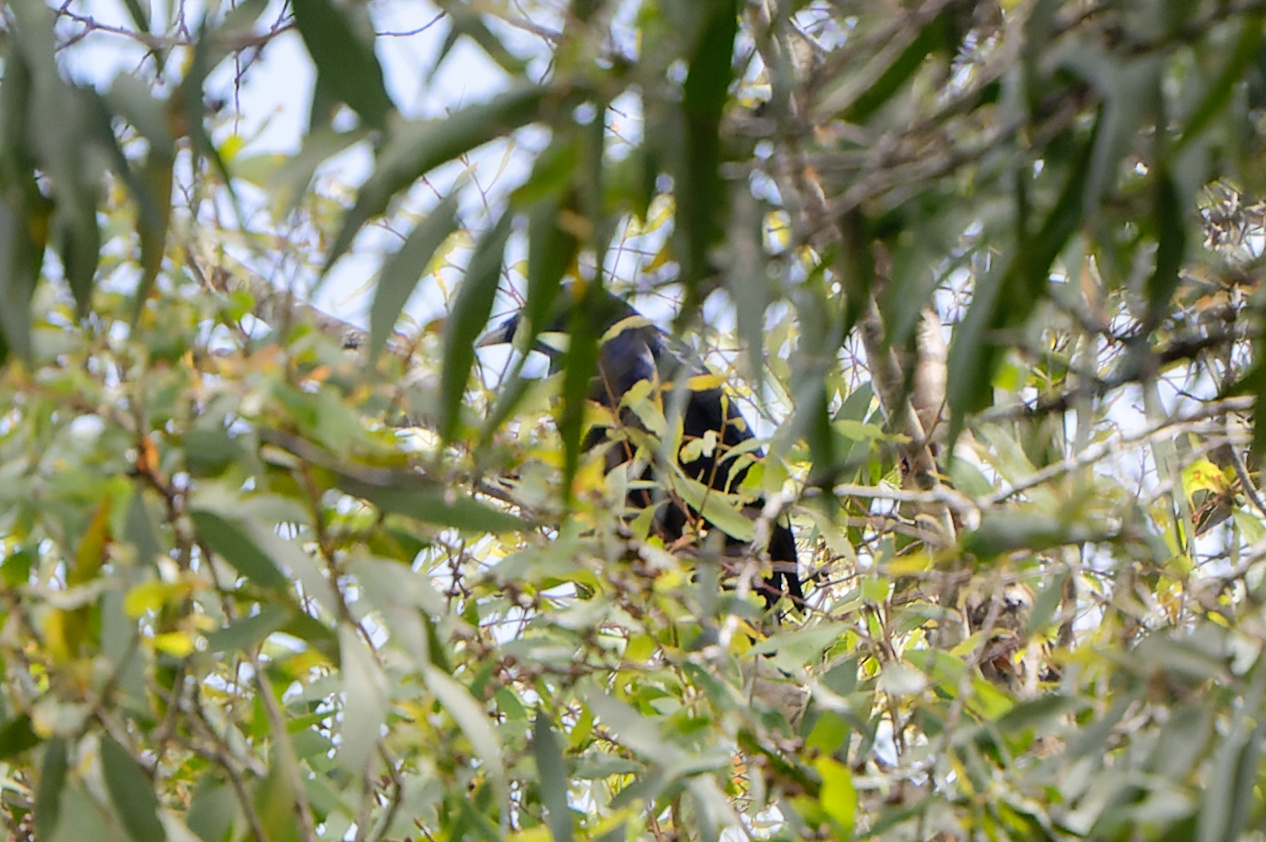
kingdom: Animalia
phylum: Chordata
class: Aves
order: Passeriformes
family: Ptilonorhynchidae
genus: Ptilonorhynchus
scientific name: Ptilonorhynchus violaceus
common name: Satin bowerbird
